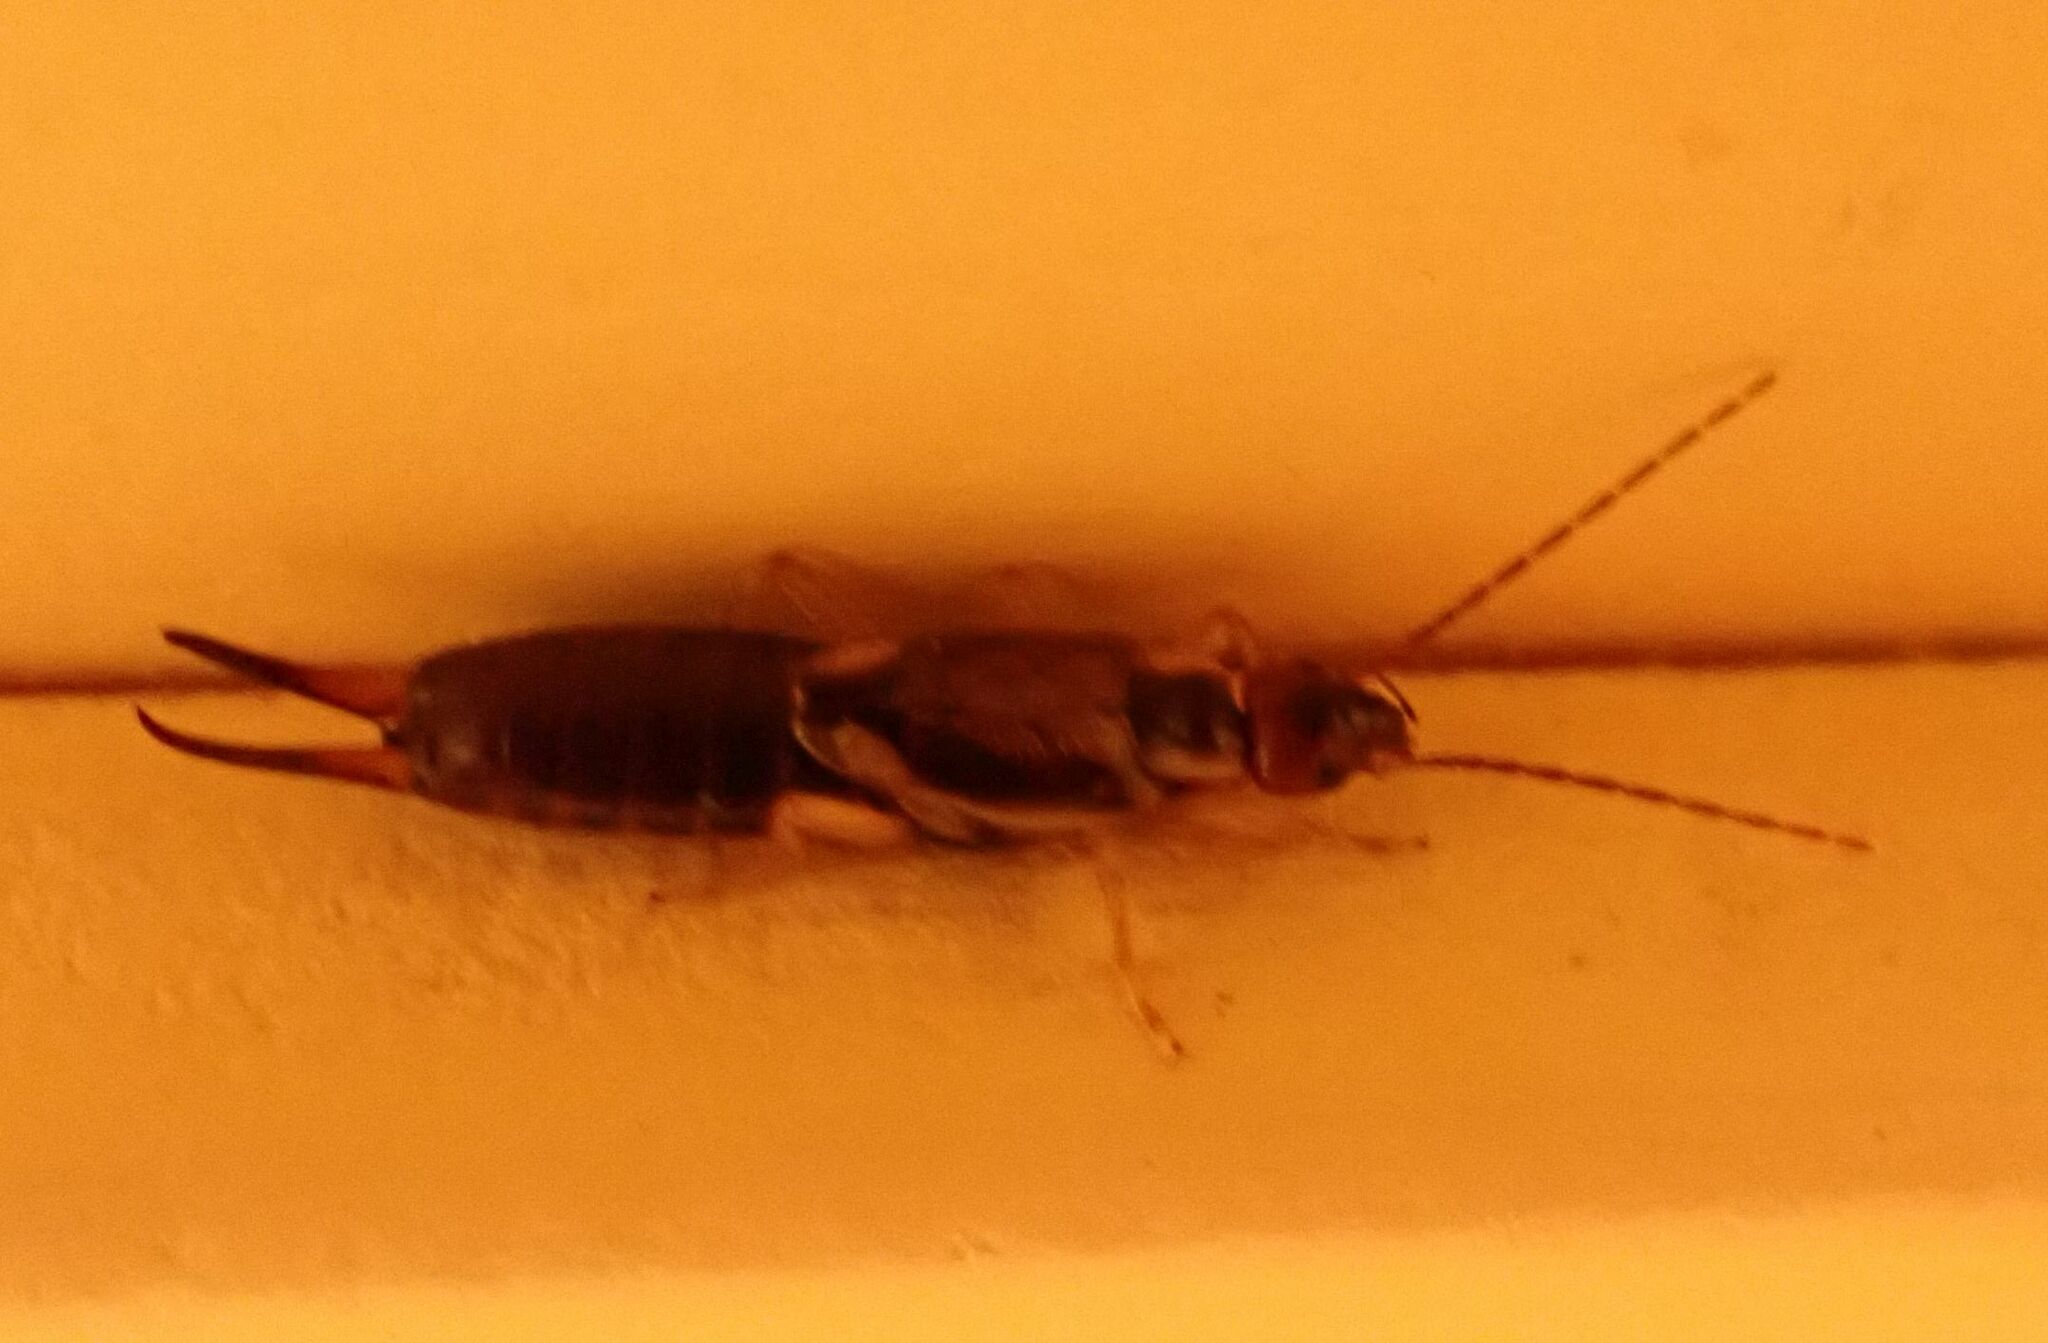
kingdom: Animalia
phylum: Arthropoda
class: Insecta
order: Dermaptera
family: Forficulidae
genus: Forficula
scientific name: Forficula mediterranea
